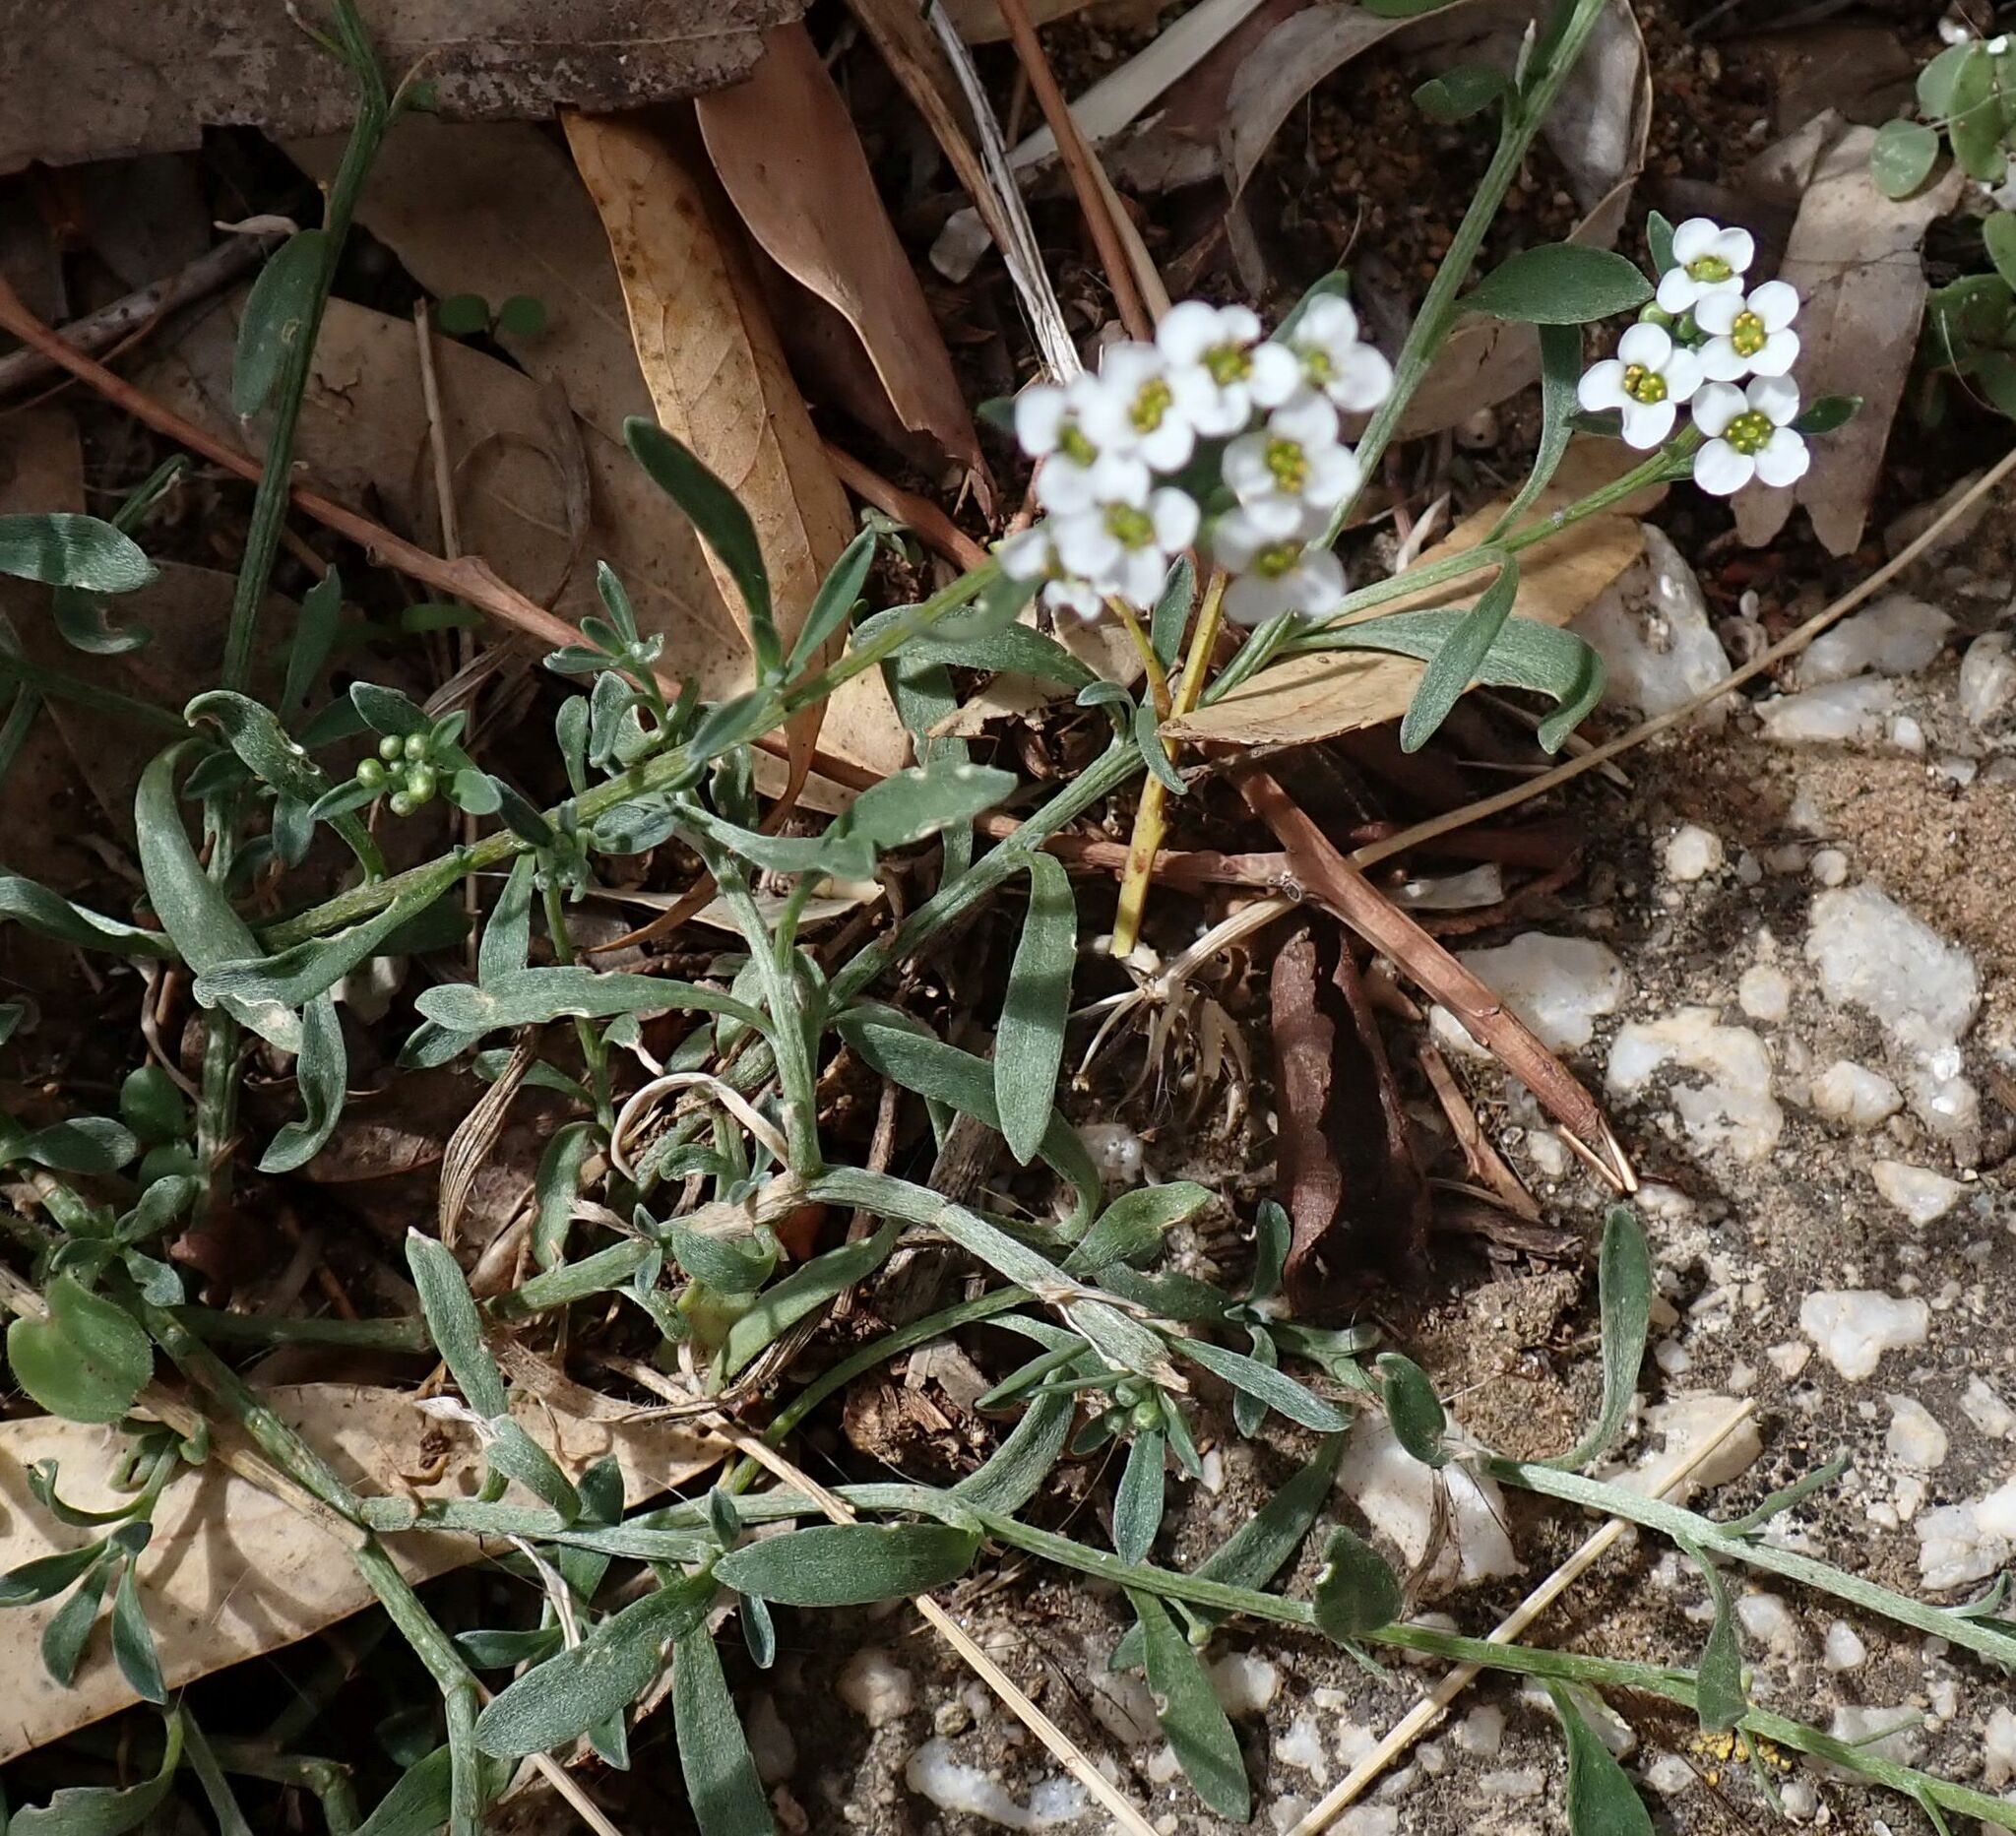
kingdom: Plantae
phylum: Tracheophyta
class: Magnoliopsida
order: Brassicales
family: Brassicaceae
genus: Lobularia
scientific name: Lobularia maritima
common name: Sweet alison
